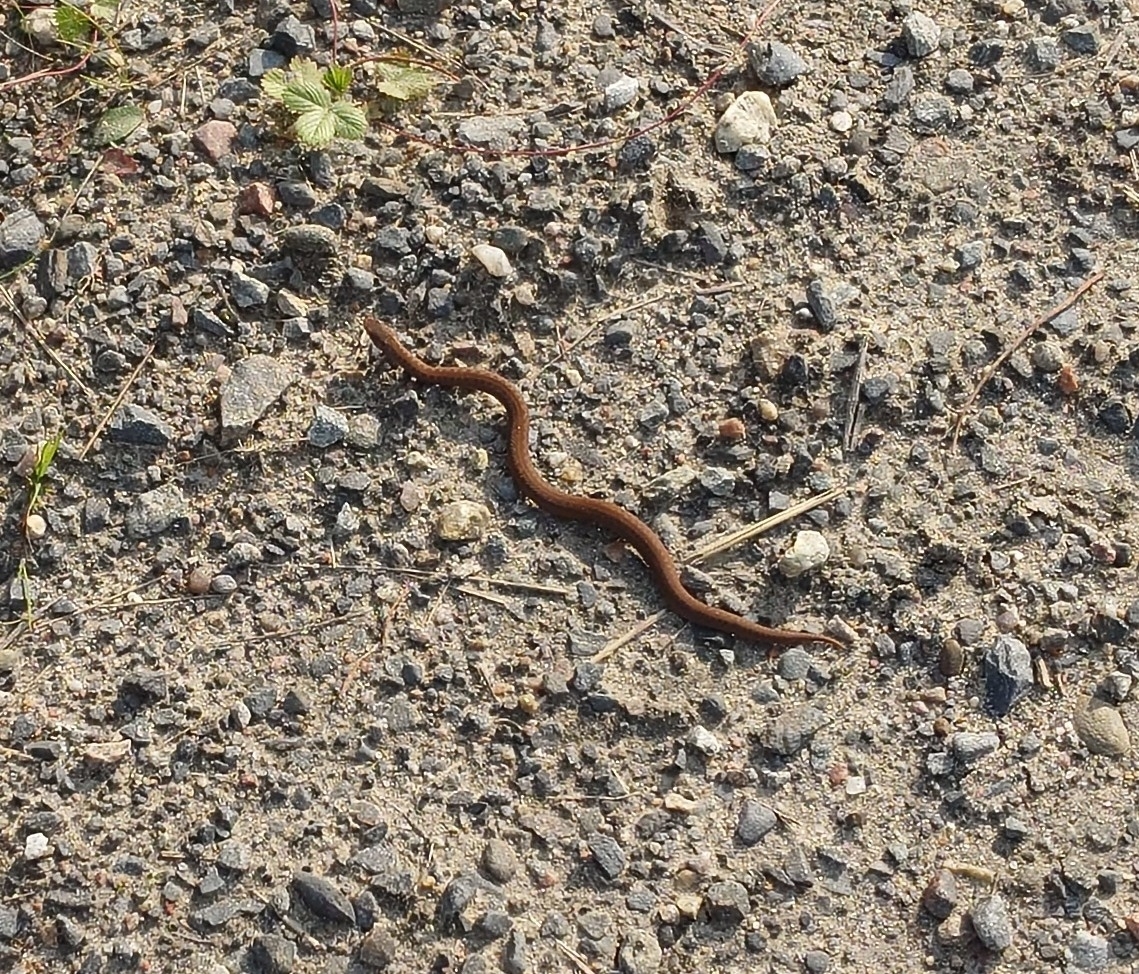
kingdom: Animalia
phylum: Chordata
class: Squamata
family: Viperidae
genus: Vipera
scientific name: Vipera berus
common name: Adder
